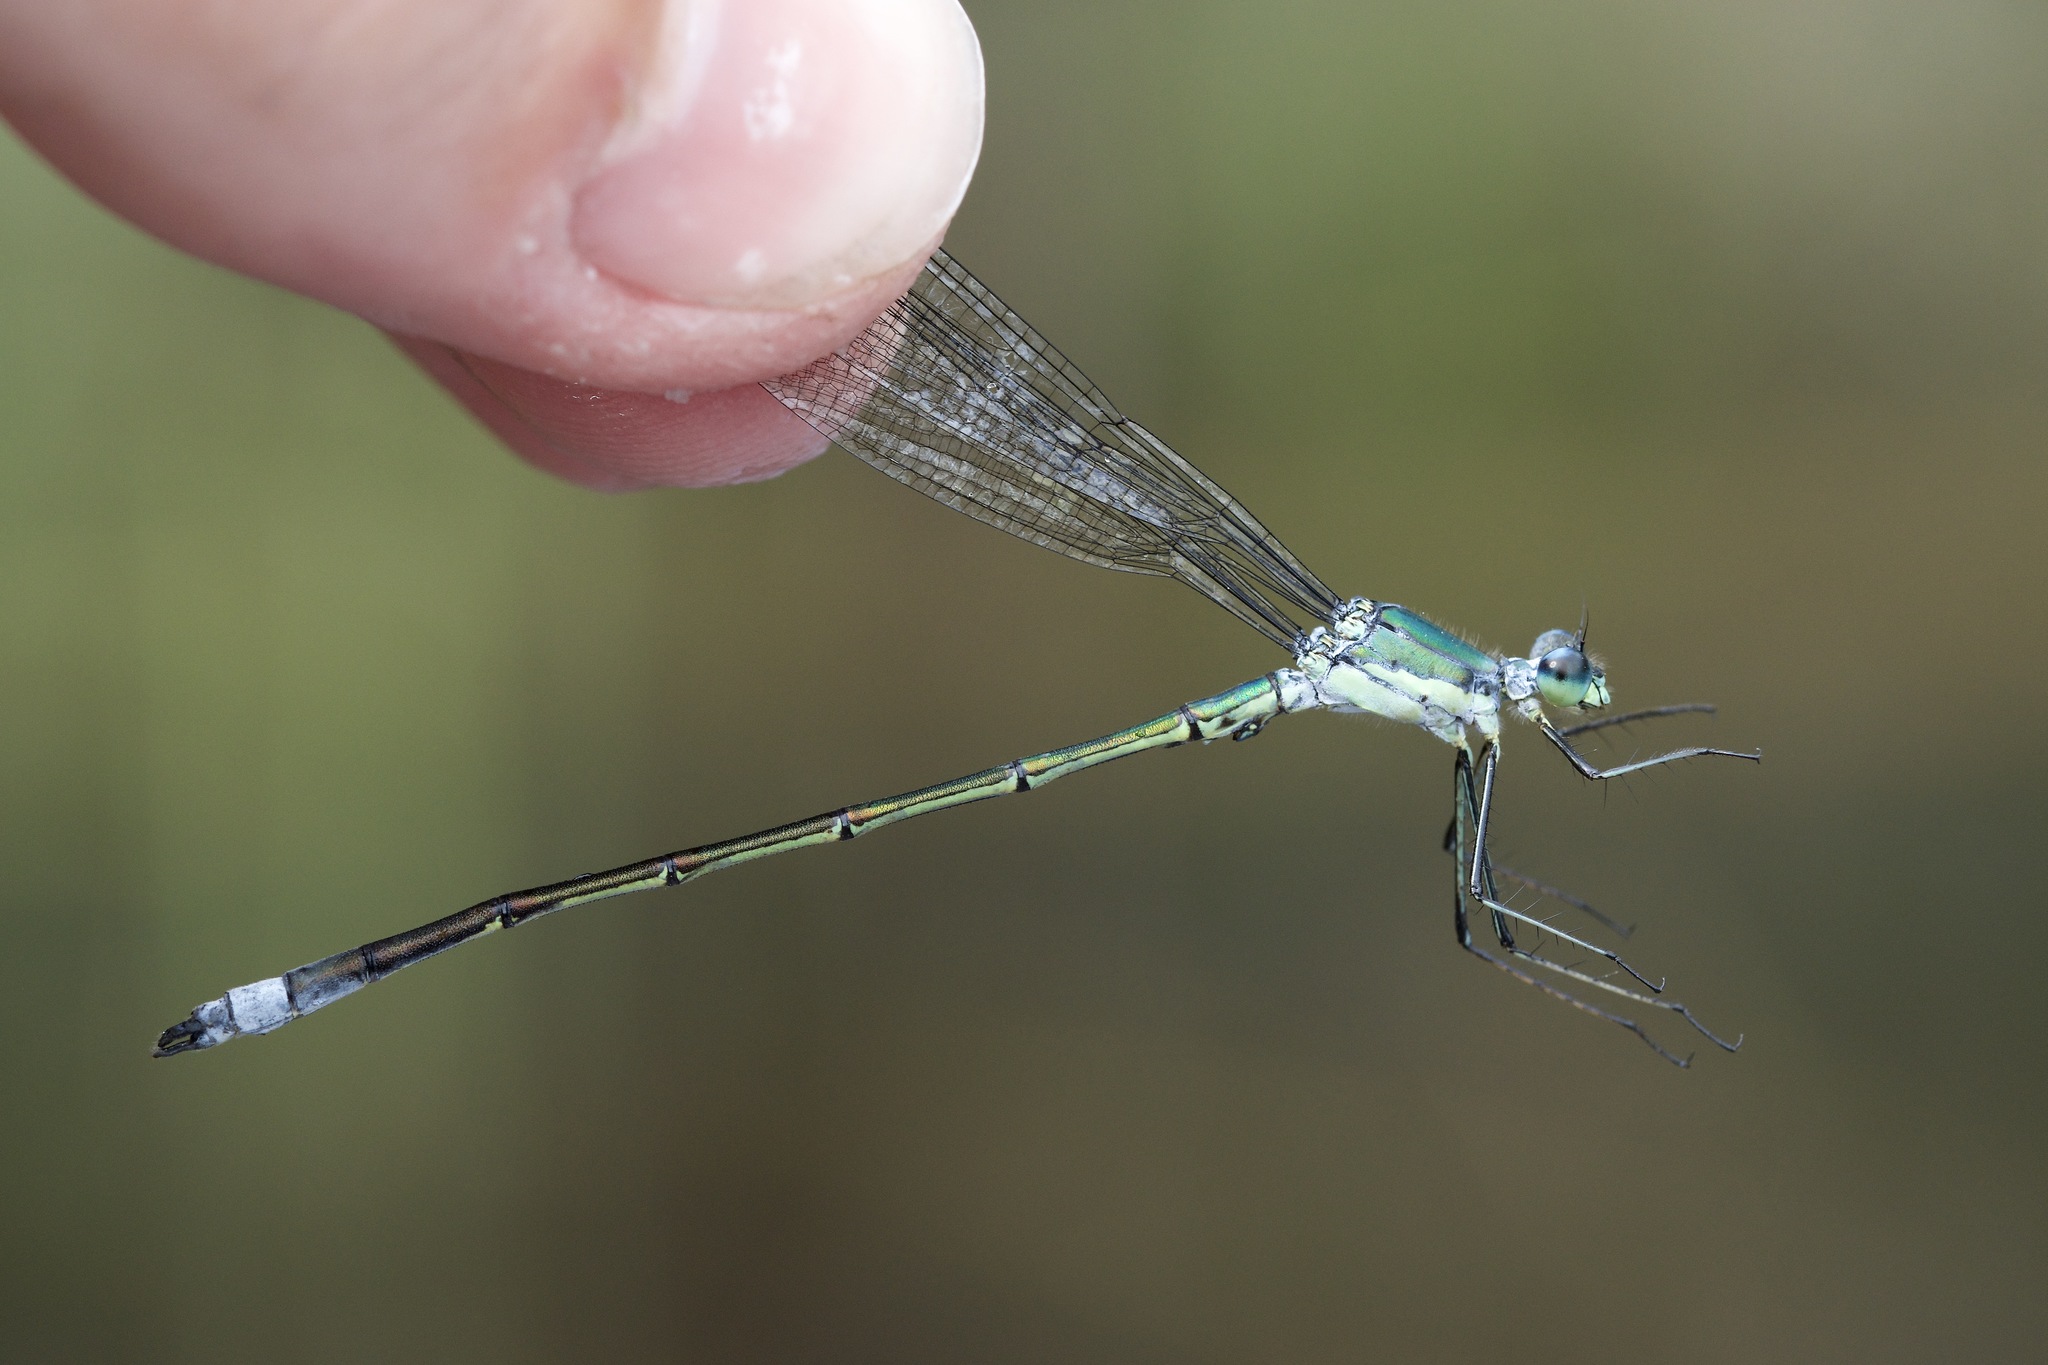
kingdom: Animalia
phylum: Arthropoda
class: Insecta
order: Odonata
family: Lestidae
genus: Lestes
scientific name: Lestes inaequalis
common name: Elegant spreadwing
